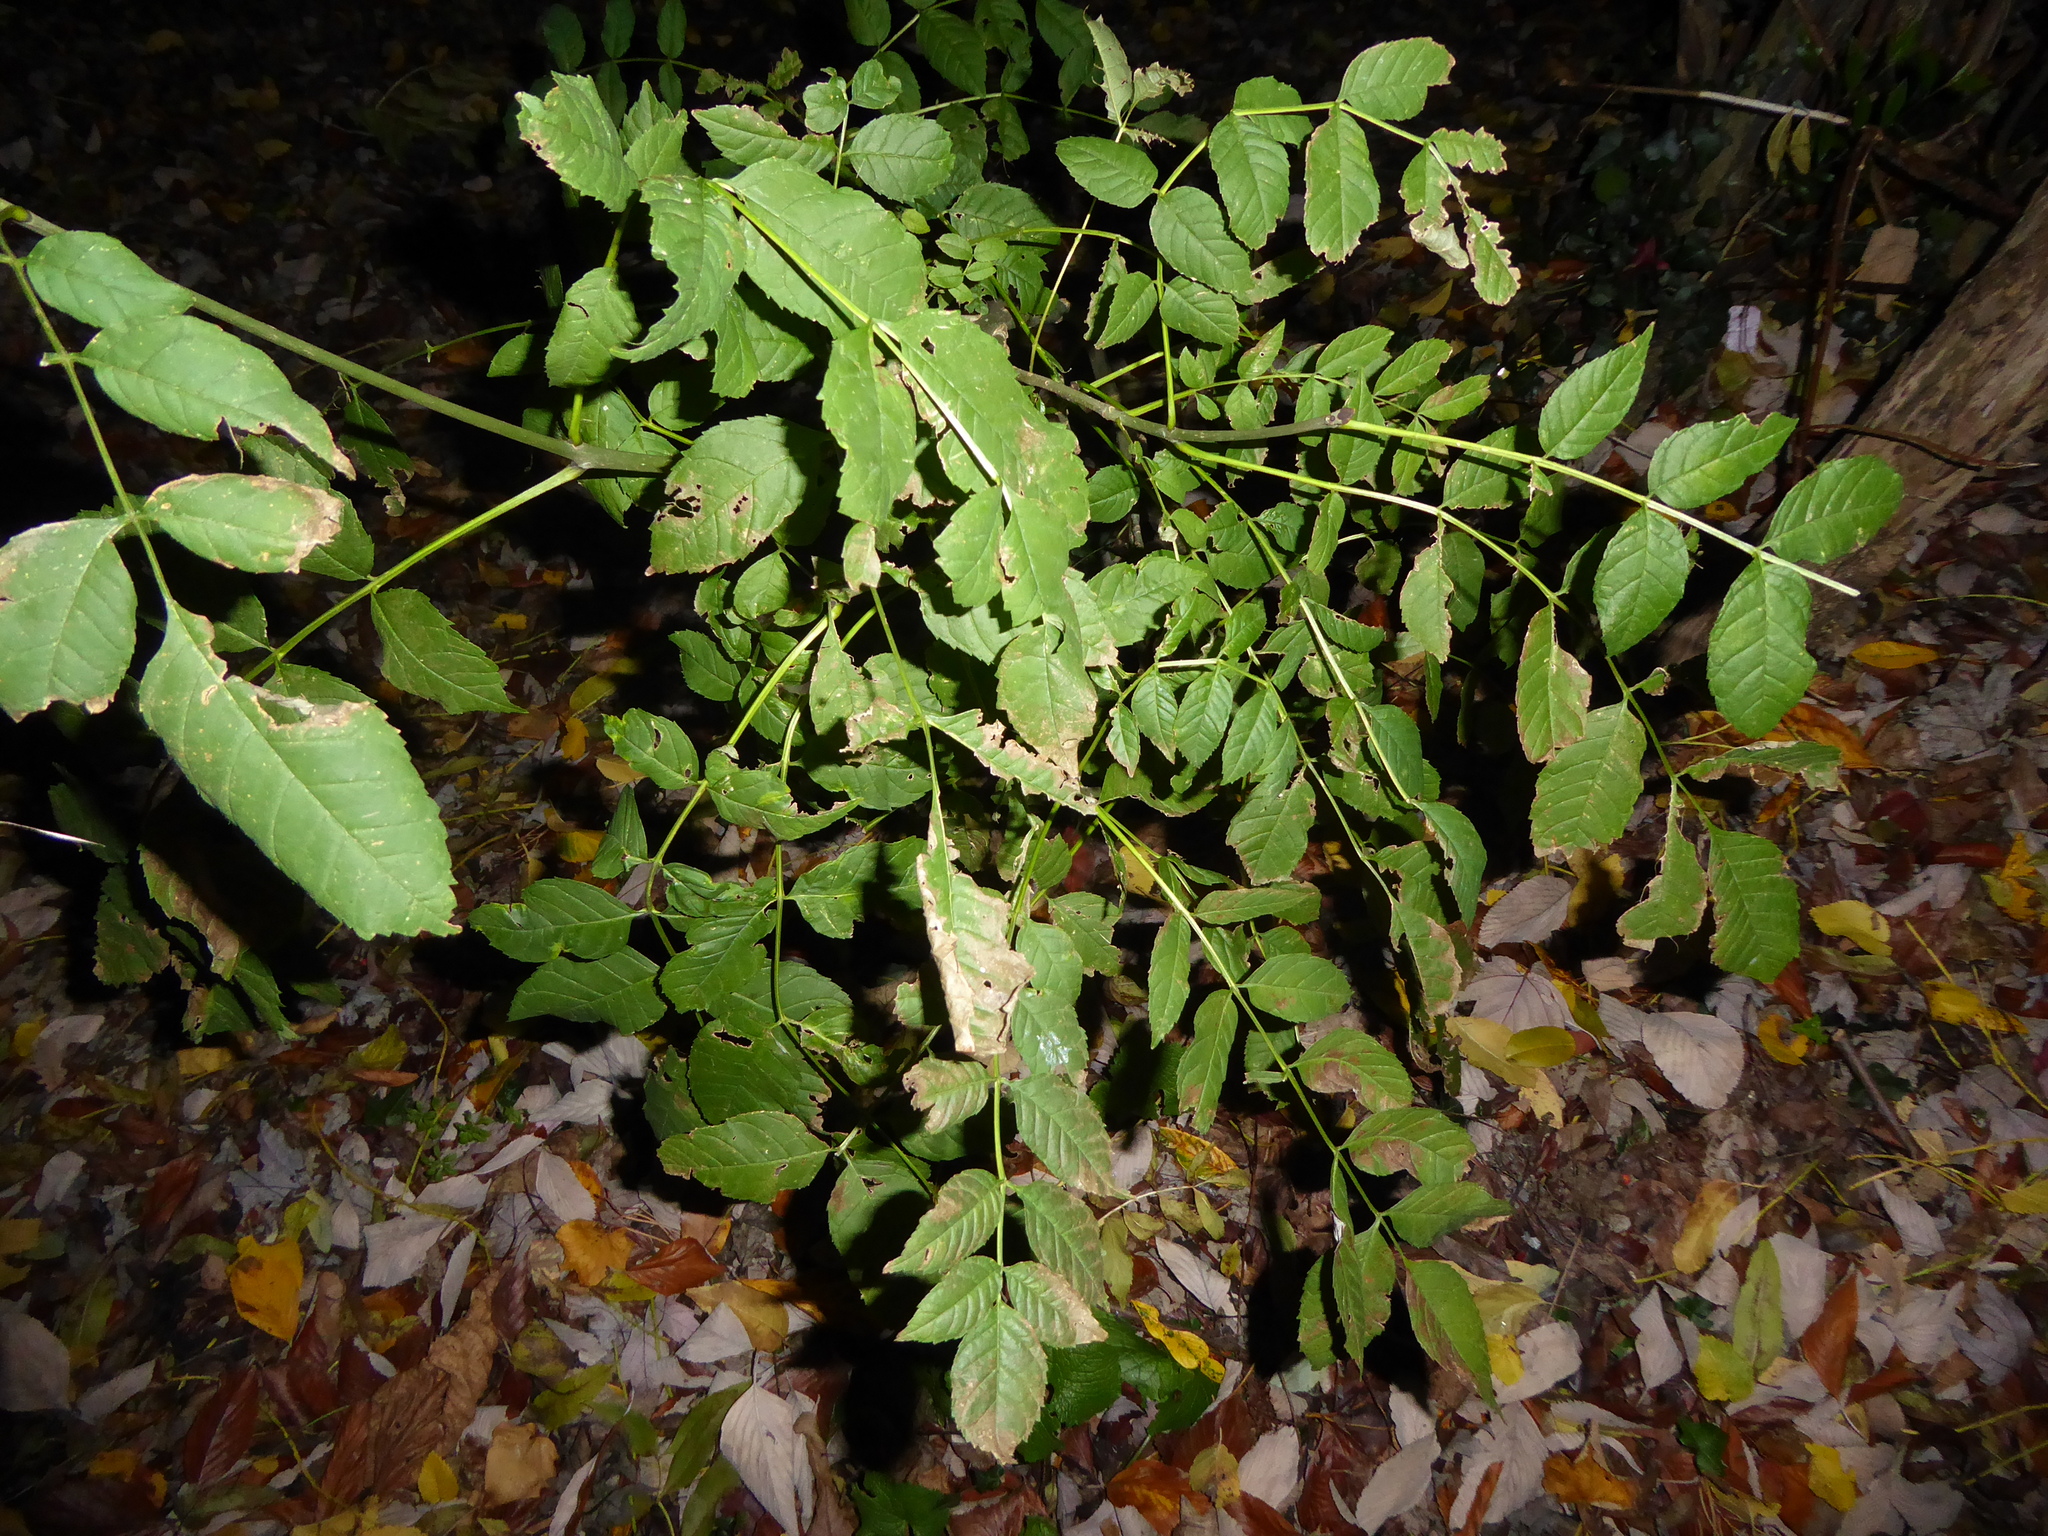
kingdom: Plantae
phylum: Tracheophyta
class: Magnoliopsida
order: Lamiales
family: Oleaceae
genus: Fraxinus
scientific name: Fraxinus excelsior
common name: European ash
